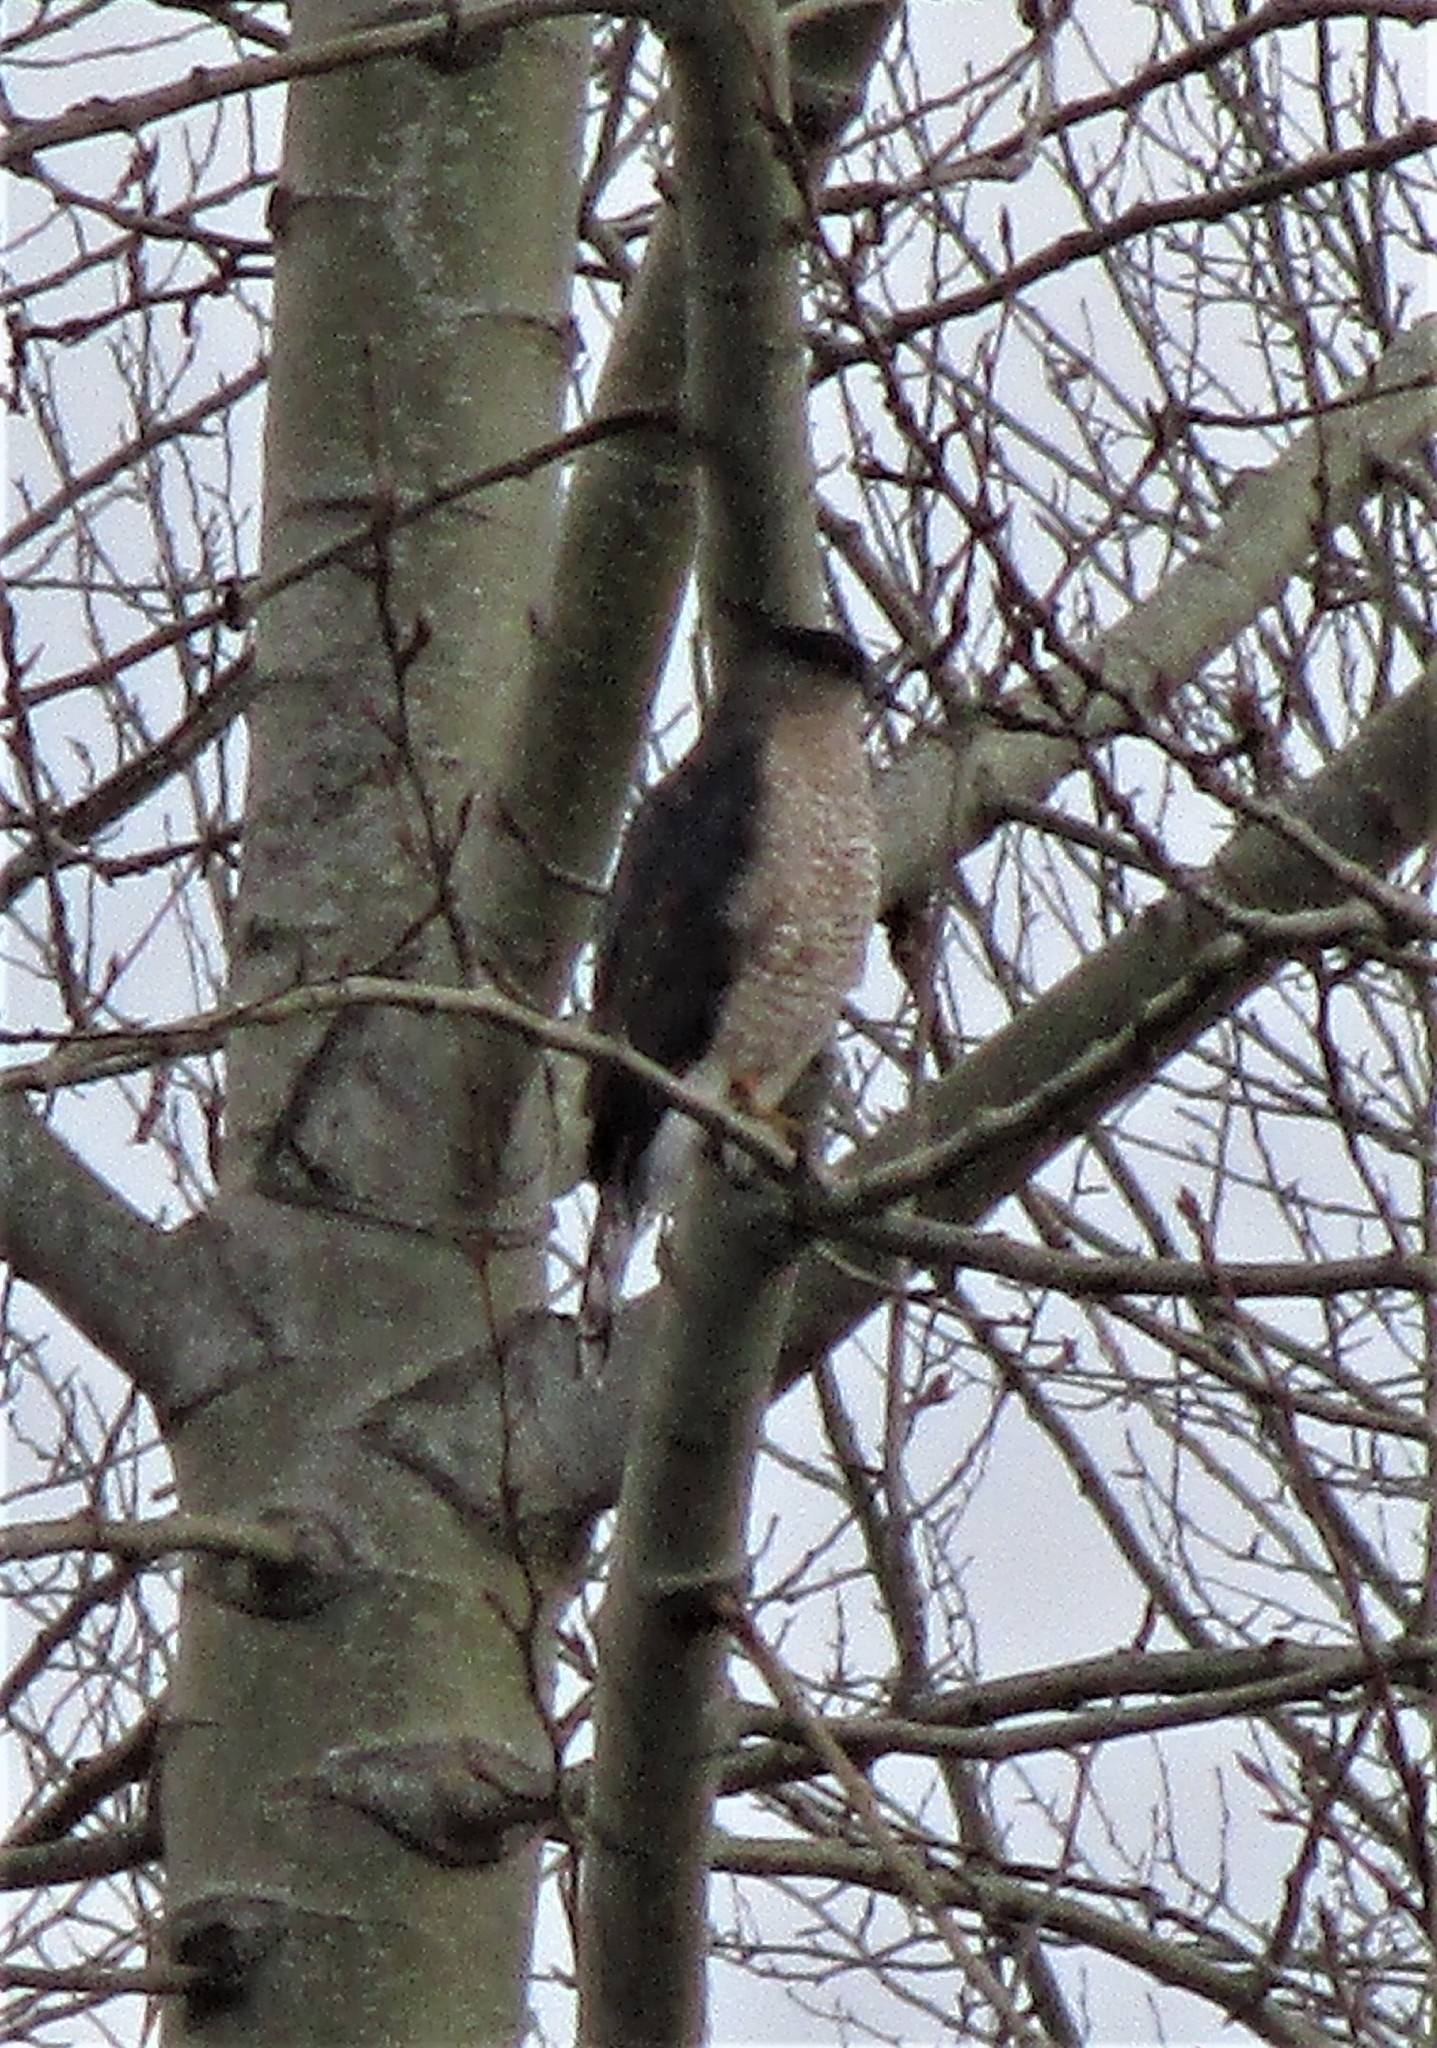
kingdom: Animalia
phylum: Chordata
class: Aves
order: Accipitriformes
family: Accipitridae
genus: Accipiter
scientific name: Accipiter cooperii
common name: Cooper's hawk
